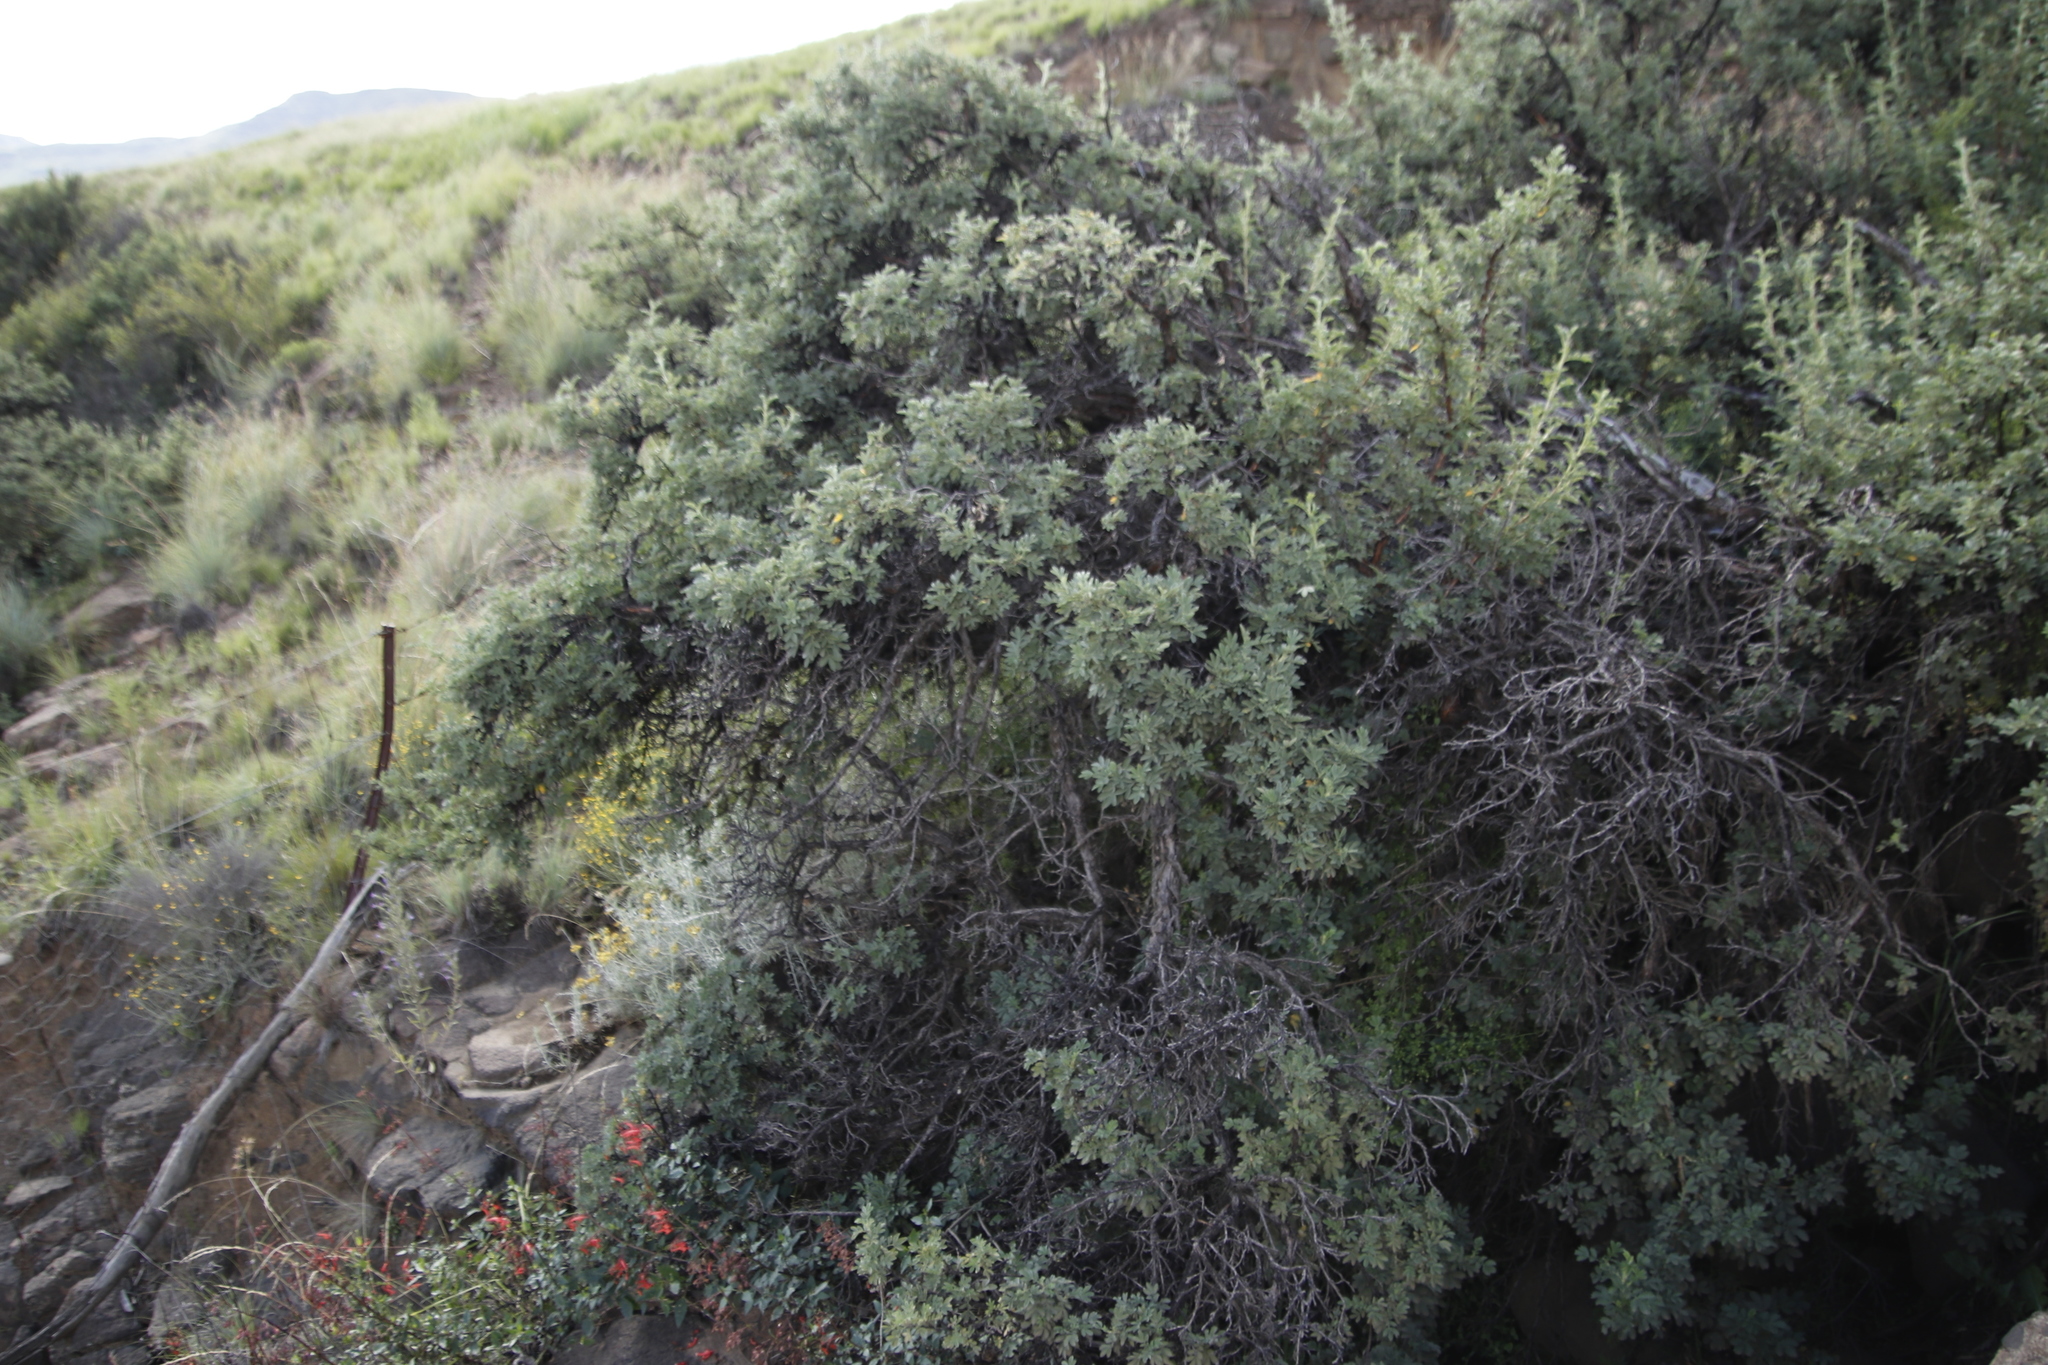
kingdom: Plantae
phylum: Tracheophyta
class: Magnoliopsida
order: Rosales
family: Rosaceae
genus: Leucosidea
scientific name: Leucosidea sericea
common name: Oldwood
